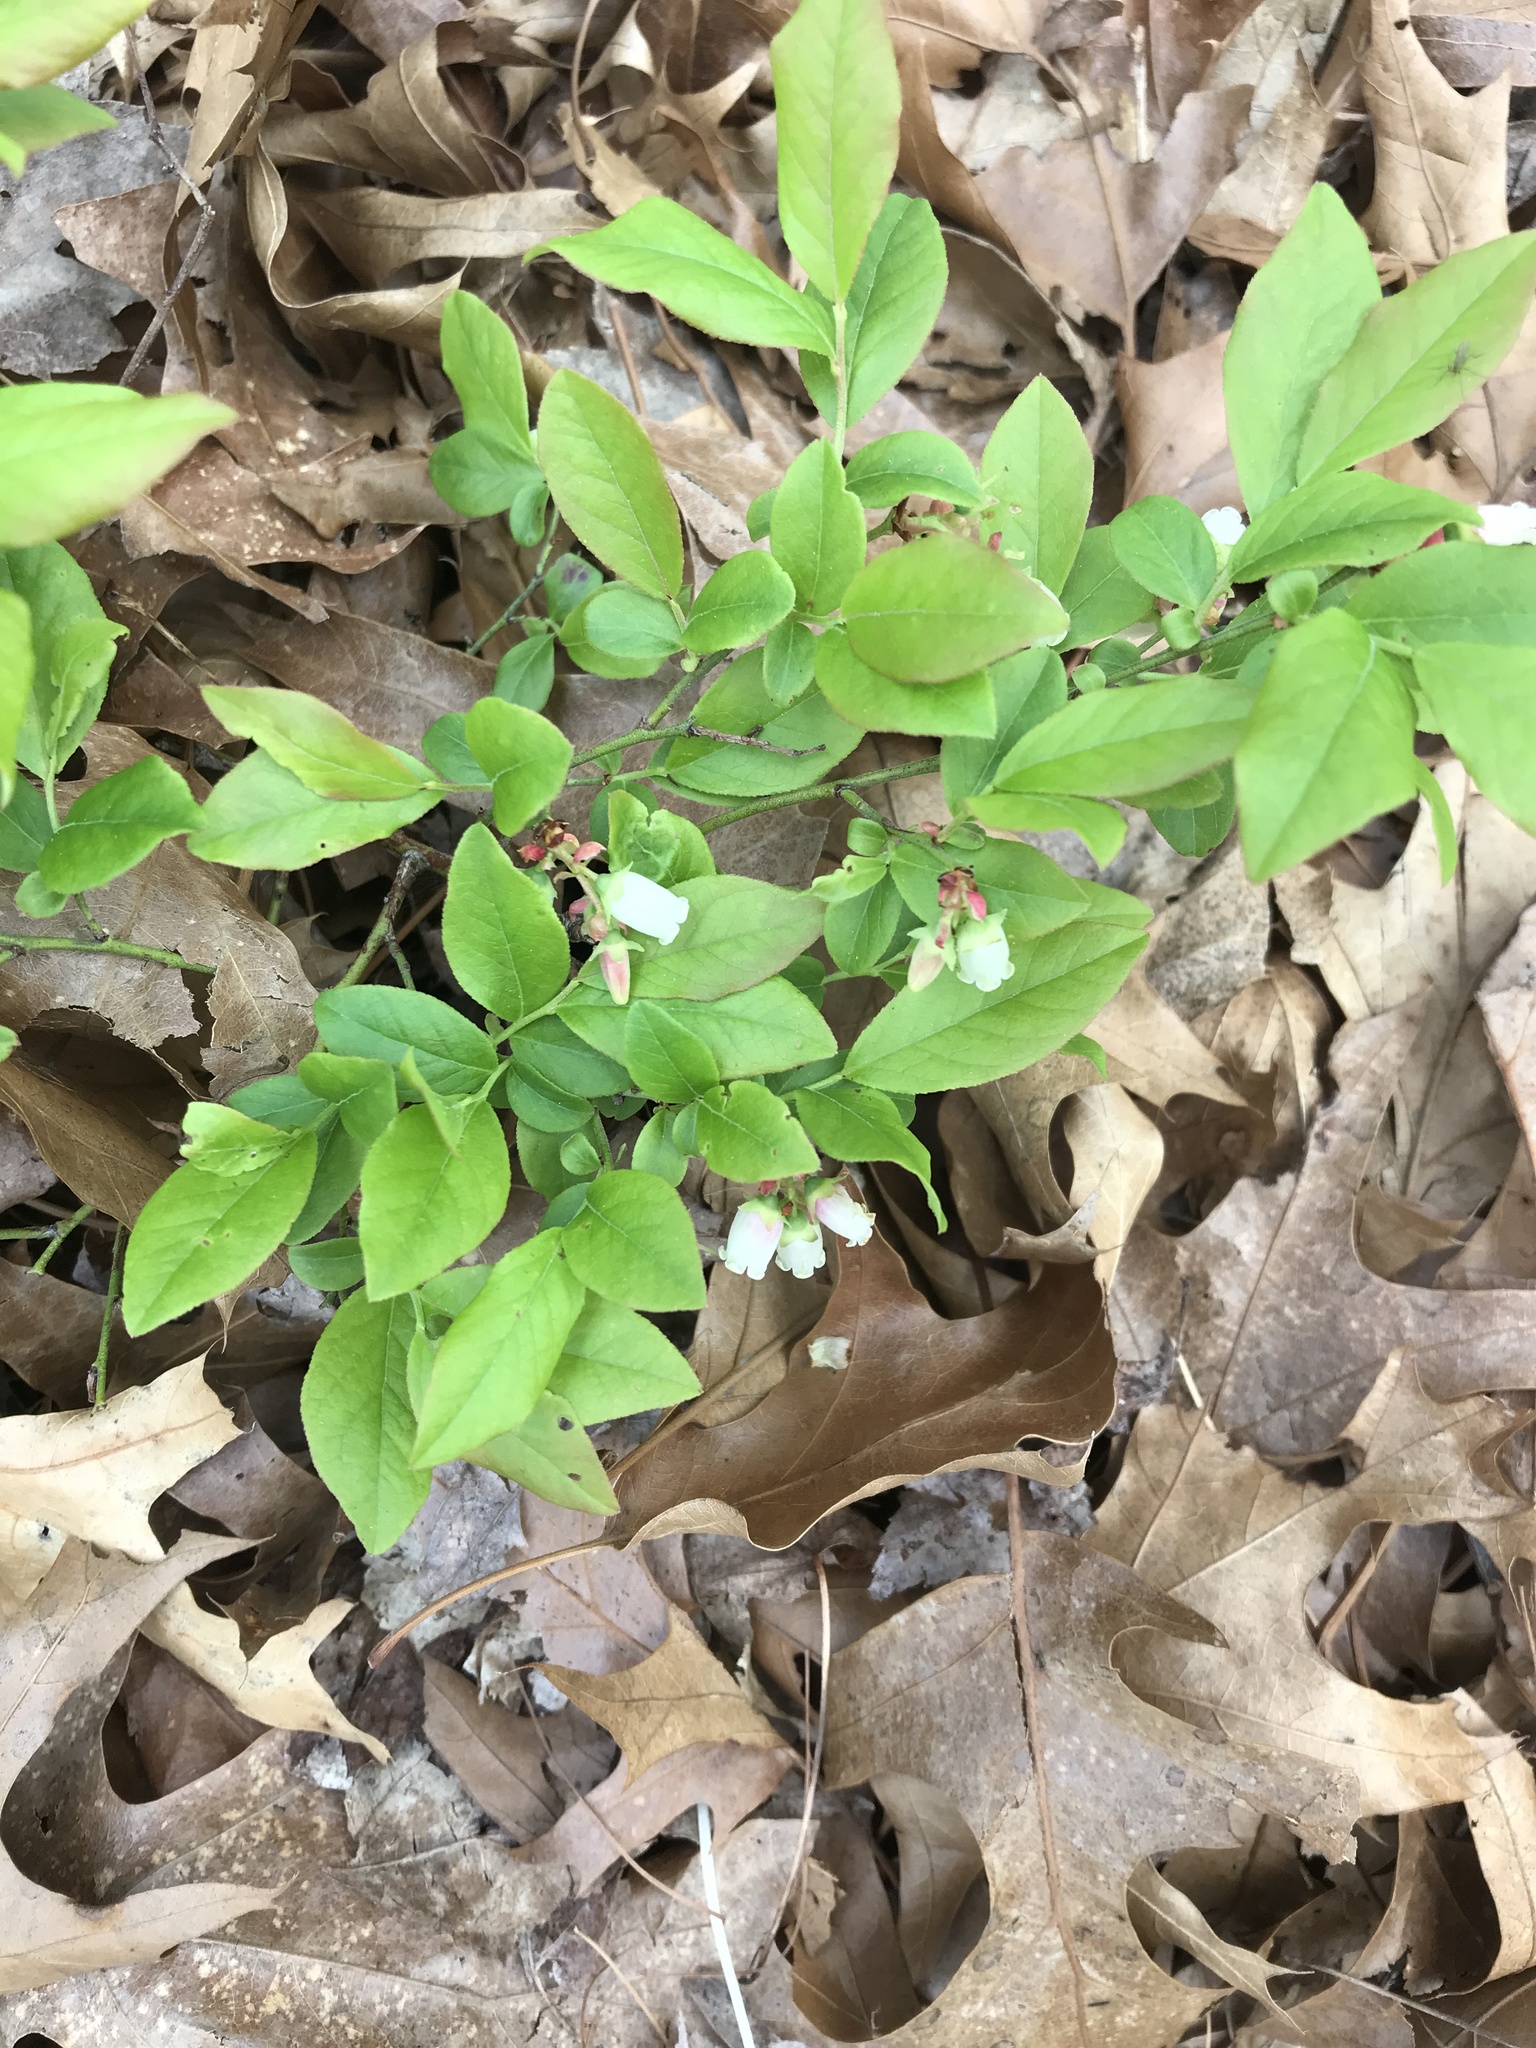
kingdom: Plantae
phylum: Tracheophyta
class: Magnoliopsida
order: Ericales
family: Ericaceae
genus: Vaccinium
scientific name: Vaccinium angustifolium
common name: Early lowbush blueberry
